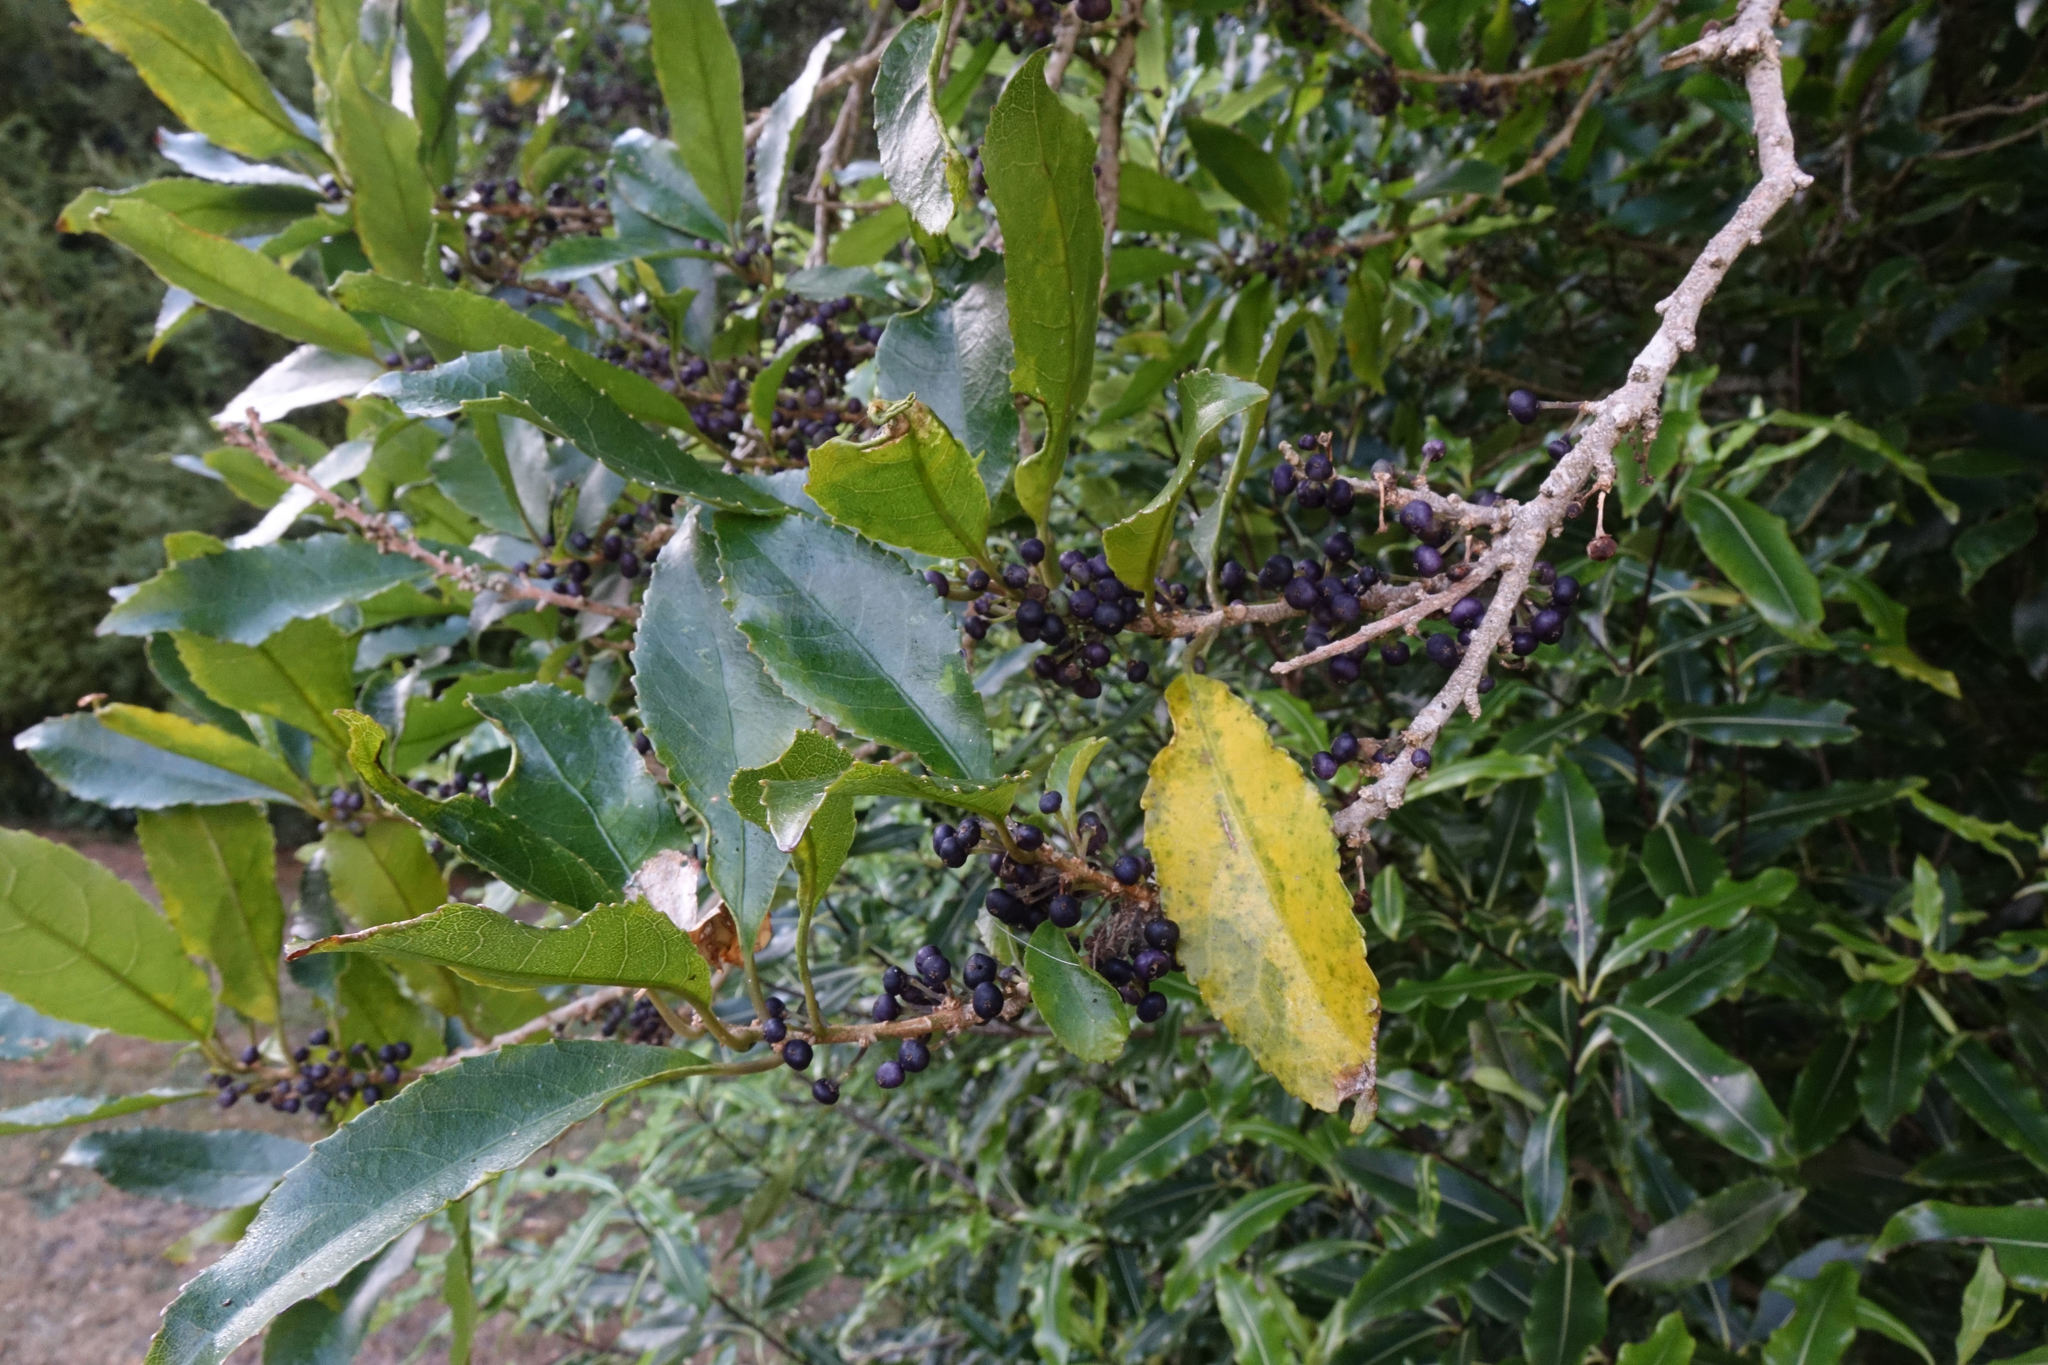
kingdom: Plantae
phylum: Tracheophyta
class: Magnoliopsida
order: Malpighiales
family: Violaceae
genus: Melicytus
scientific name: Melicytus ramiflorus
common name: Mahoe
